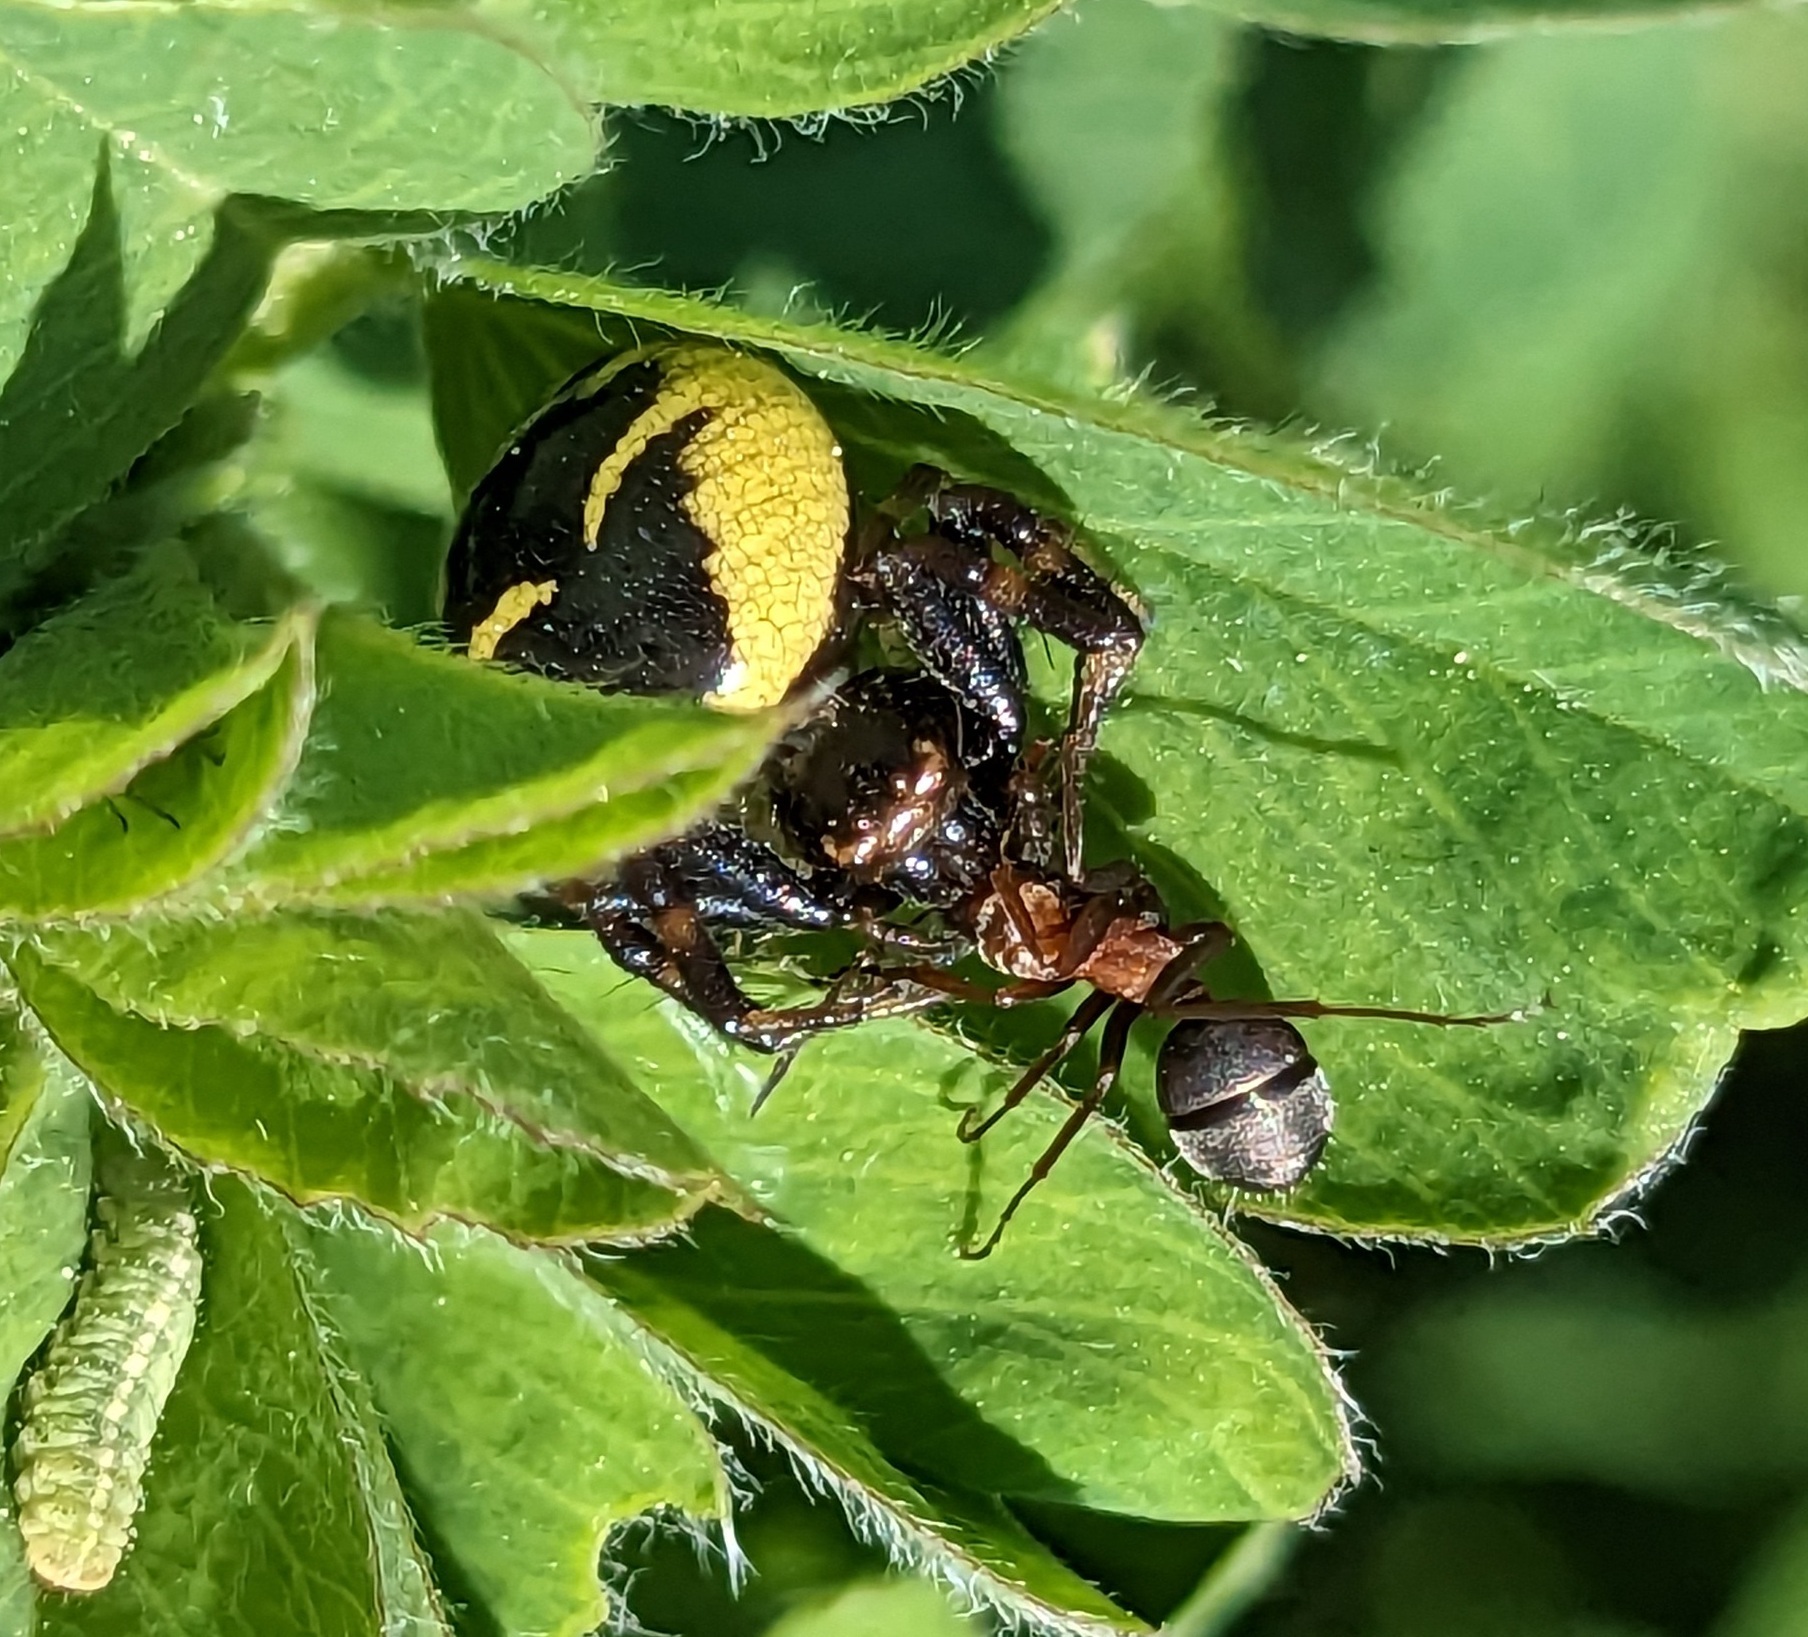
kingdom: Animalia
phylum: Arthropoda
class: Arachnida
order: Araneae
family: Thomisidae
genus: Synema
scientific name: Synema globosum
